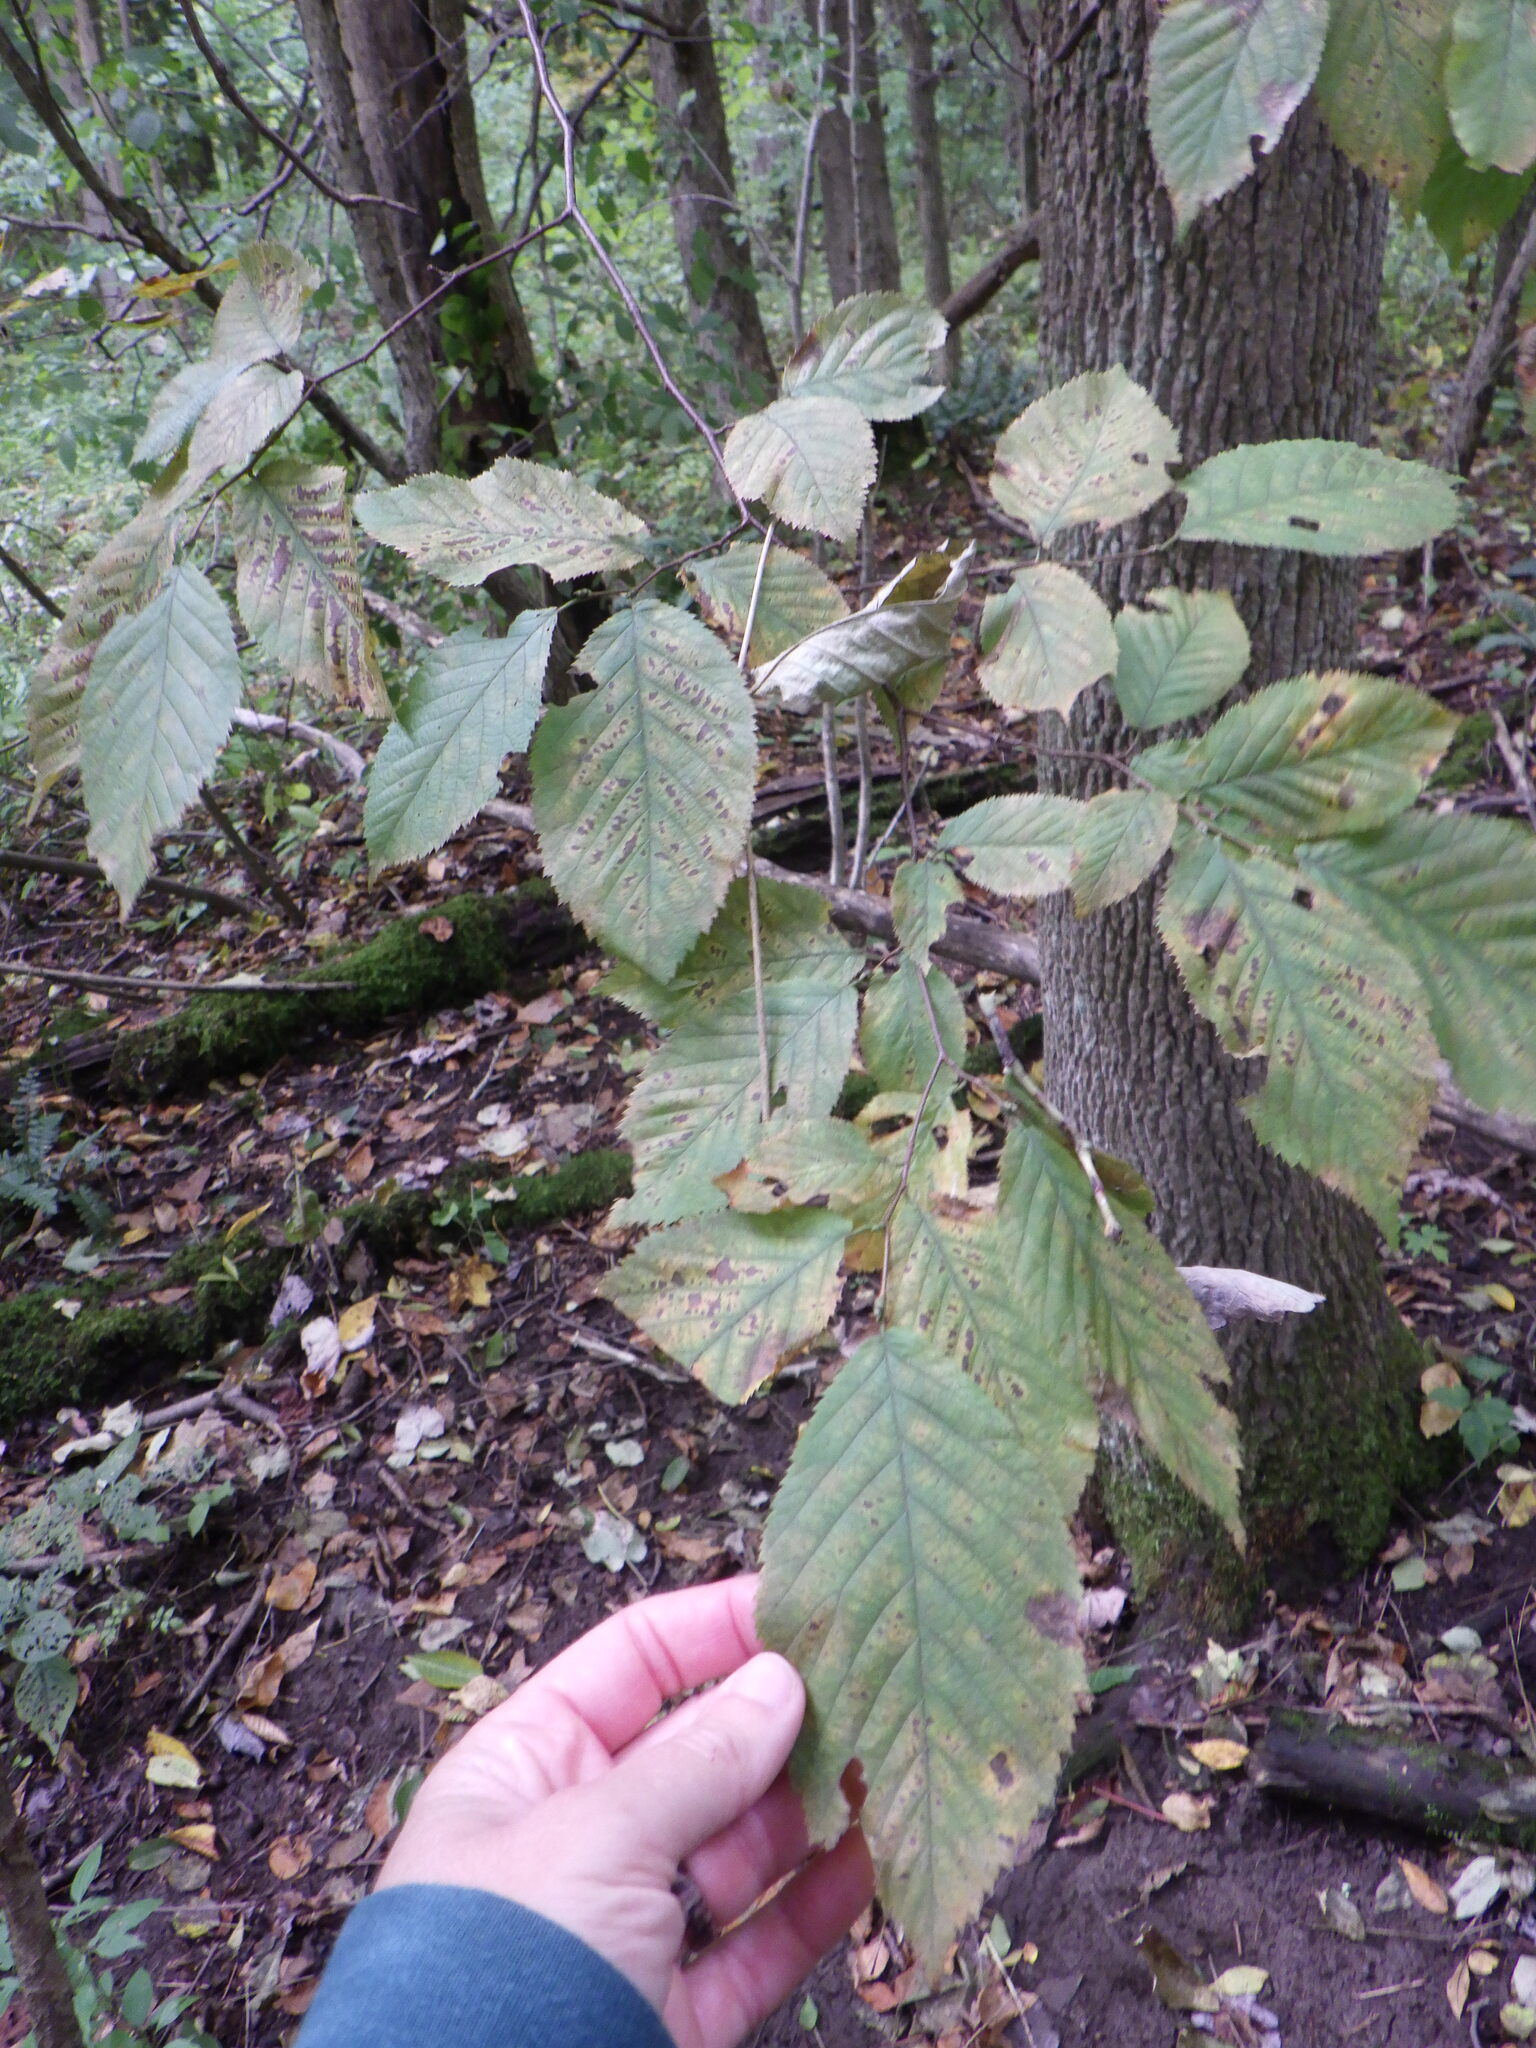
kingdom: Plantae
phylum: Tracheophyta
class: Magnoliopsida
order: Fagales
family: Fagaceae
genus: Fagus
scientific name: Fagus grandifolia
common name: American beech
